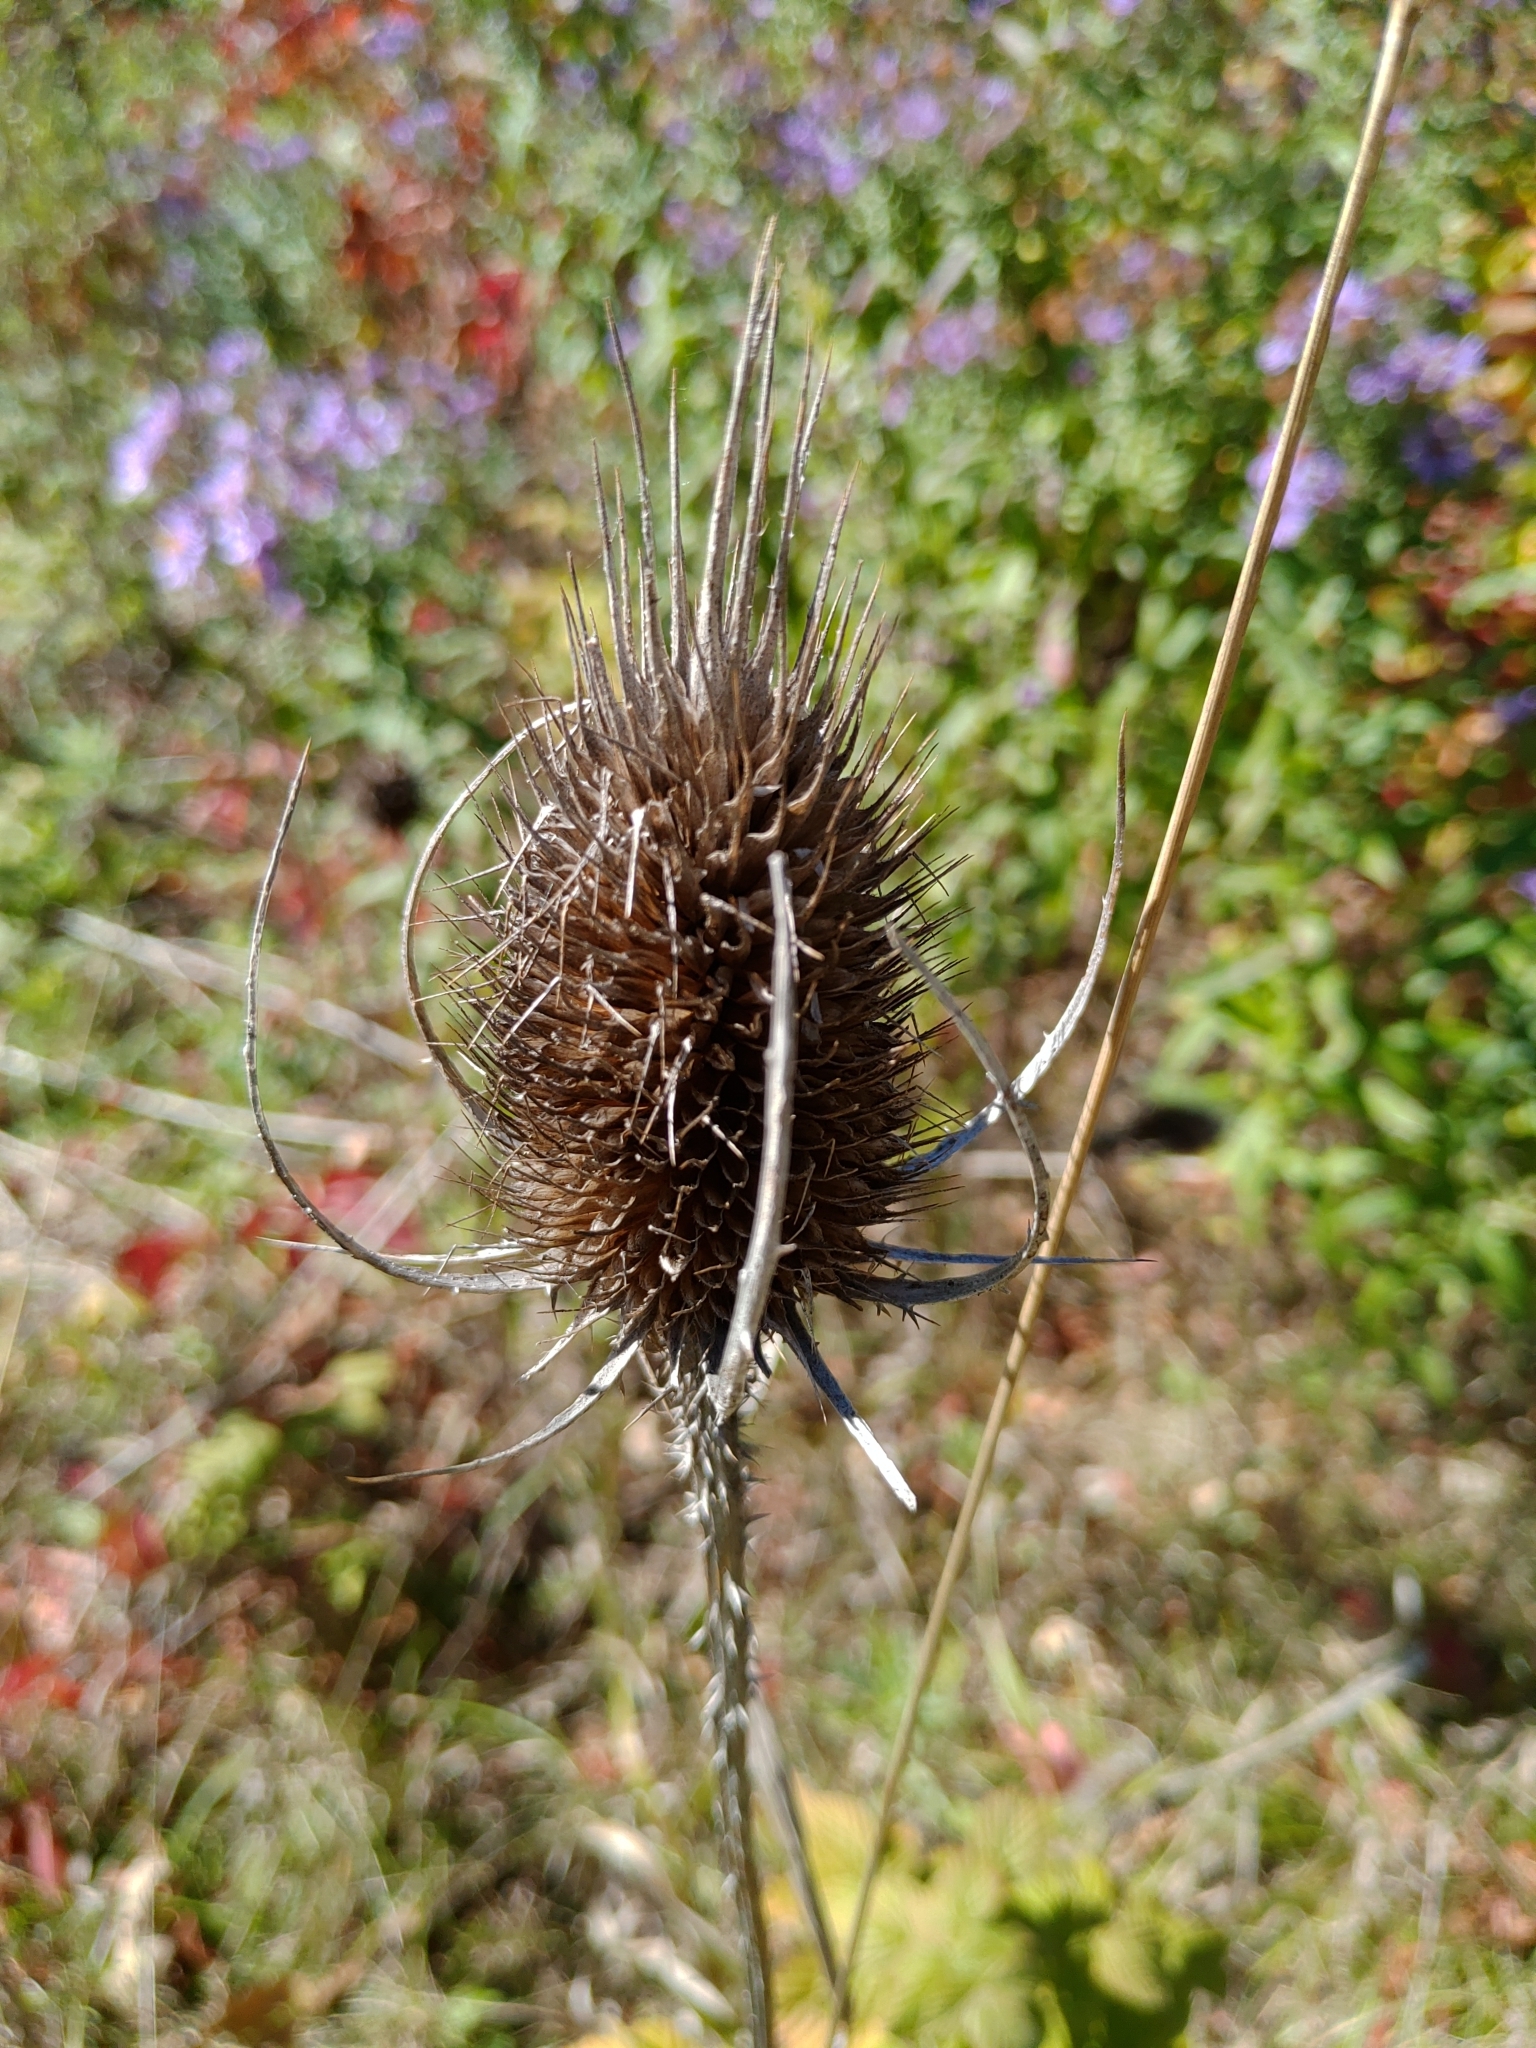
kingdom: Plantae
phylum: Tracheophyta
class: Magnoliopsida
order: Dipsacales
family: Caprifoliaceae
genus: Dipsacus
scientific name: Dipsacus fullonum
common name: Teasel
